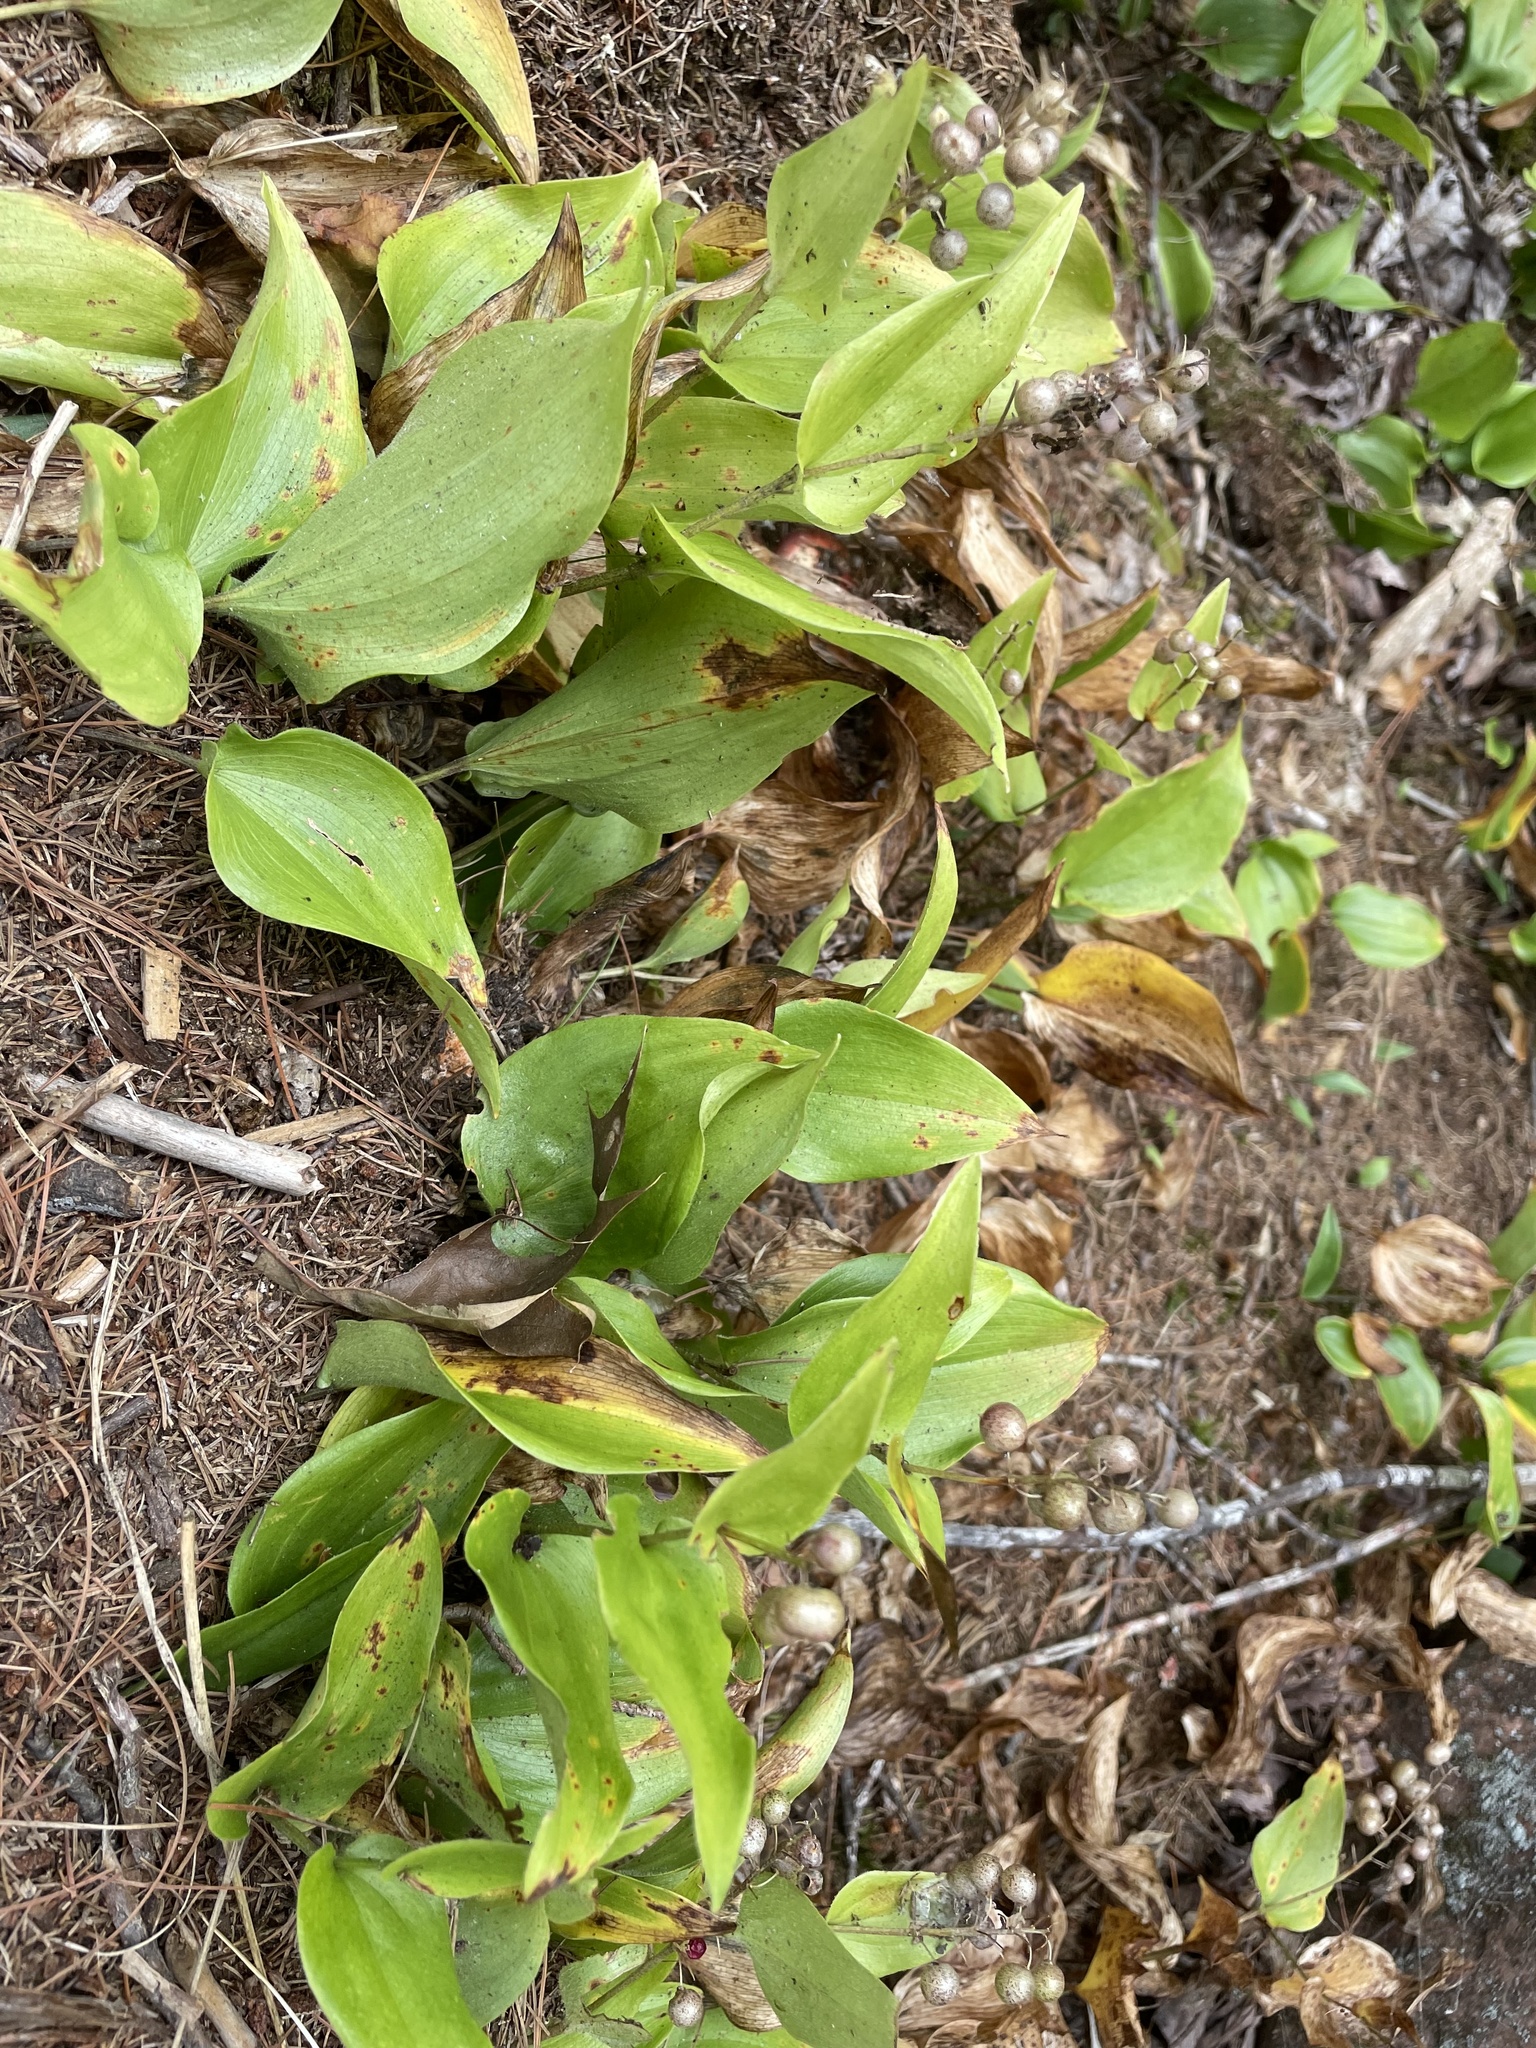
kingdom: Plantae
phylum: Tracheophyta
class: Liliopsida
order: Asparagales
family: Asparagaceae
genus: Maianthemum
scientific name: Maianthemum canadense
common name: False lily-of-the-valley
